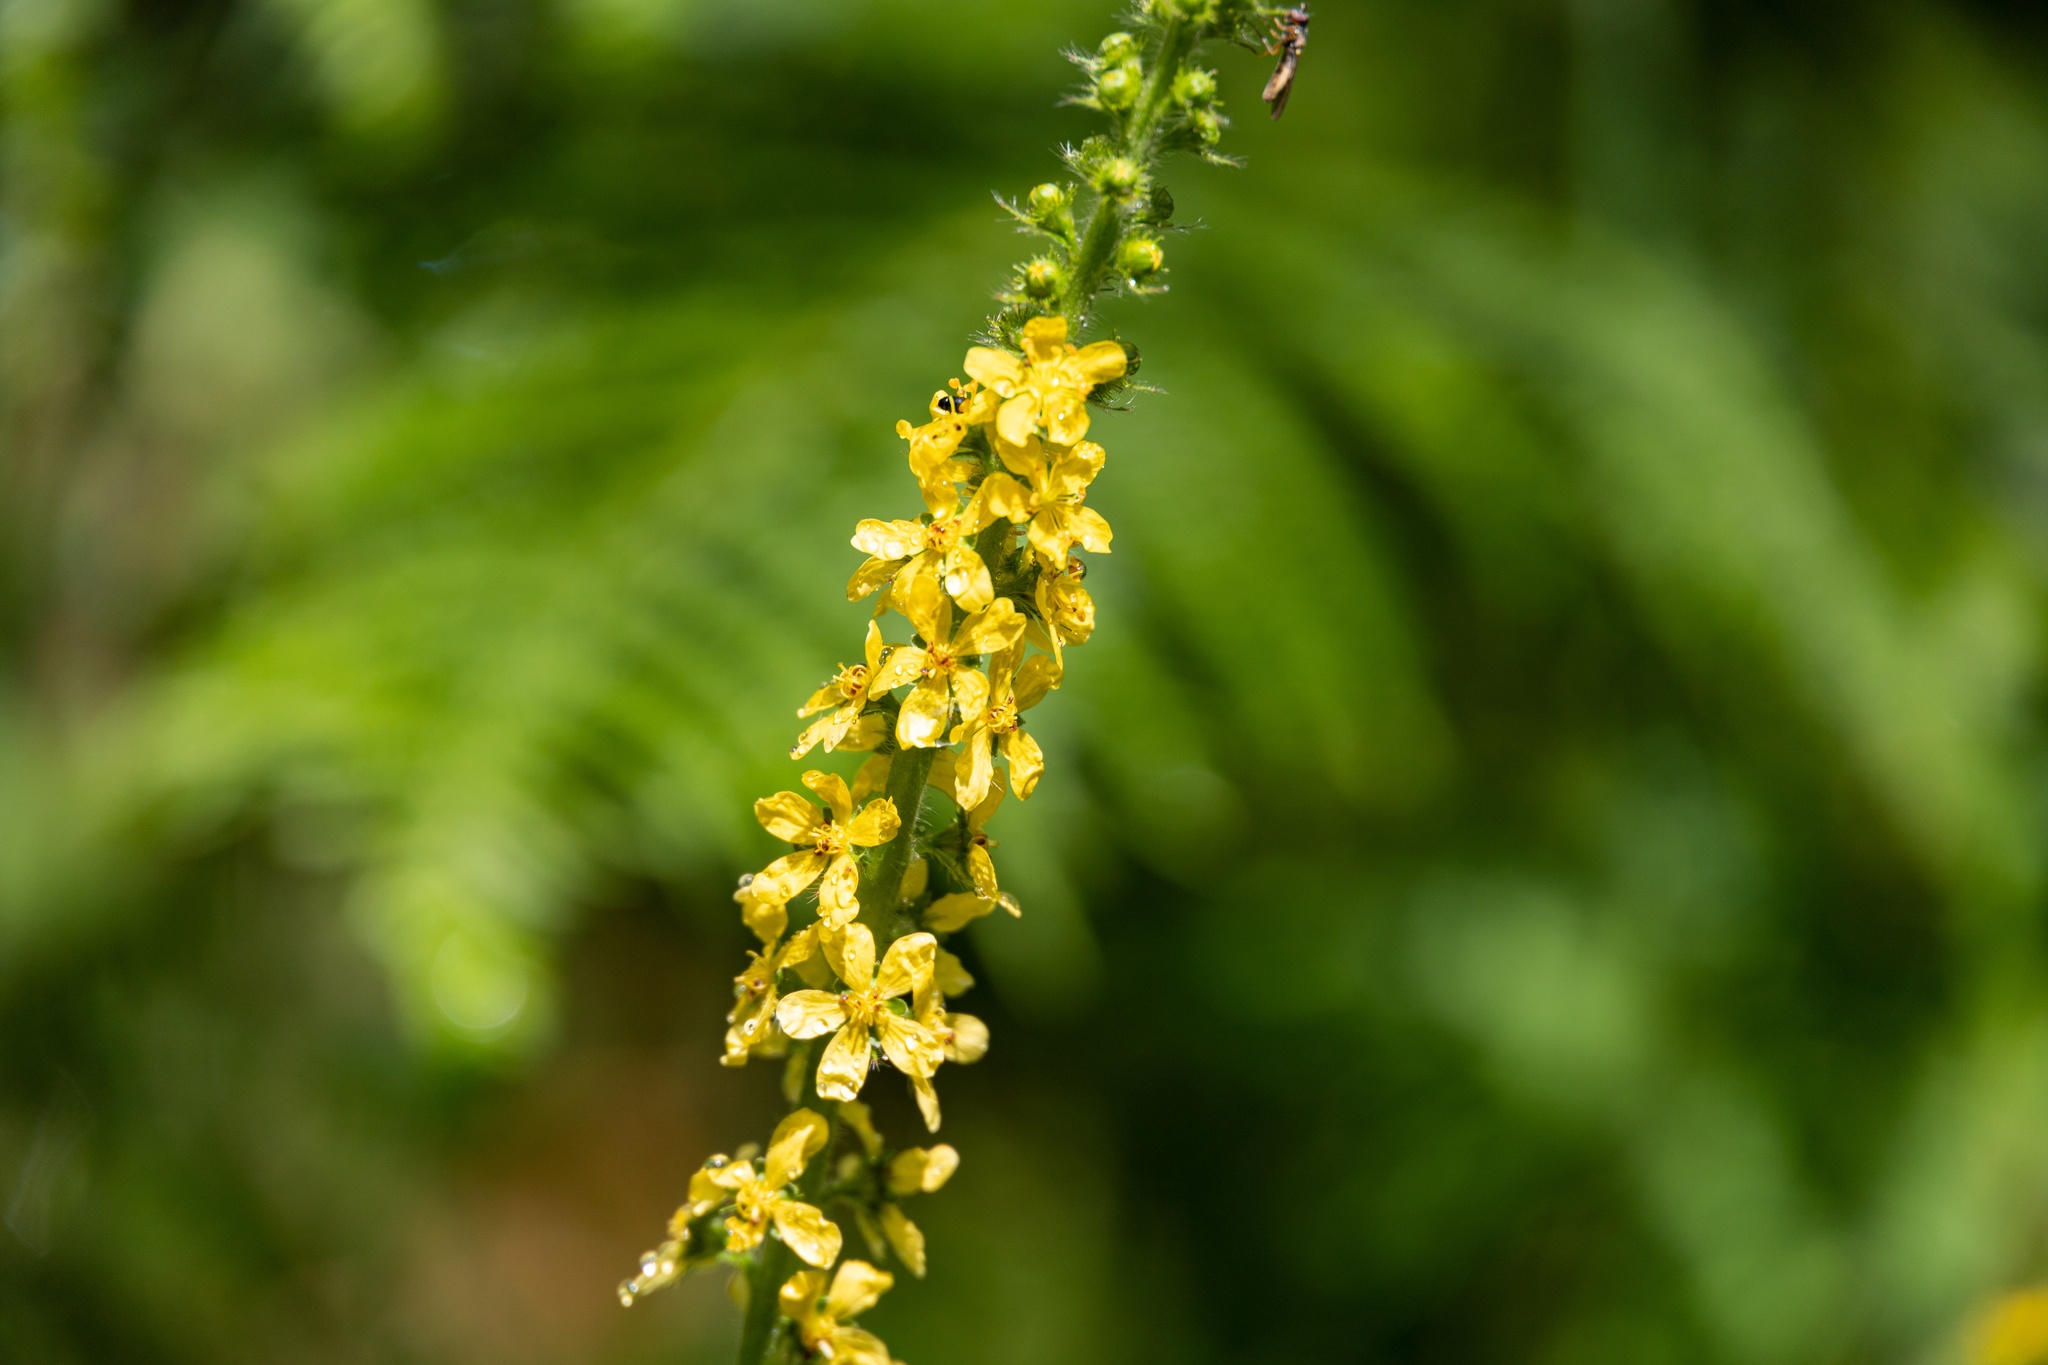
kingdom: Plantae
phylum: Tracheophyta
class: Magnoliopsida
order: Rosales
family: Rosaceae
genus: Agrimonia
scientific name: Agrimonia eupatoria
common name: Agrimony
